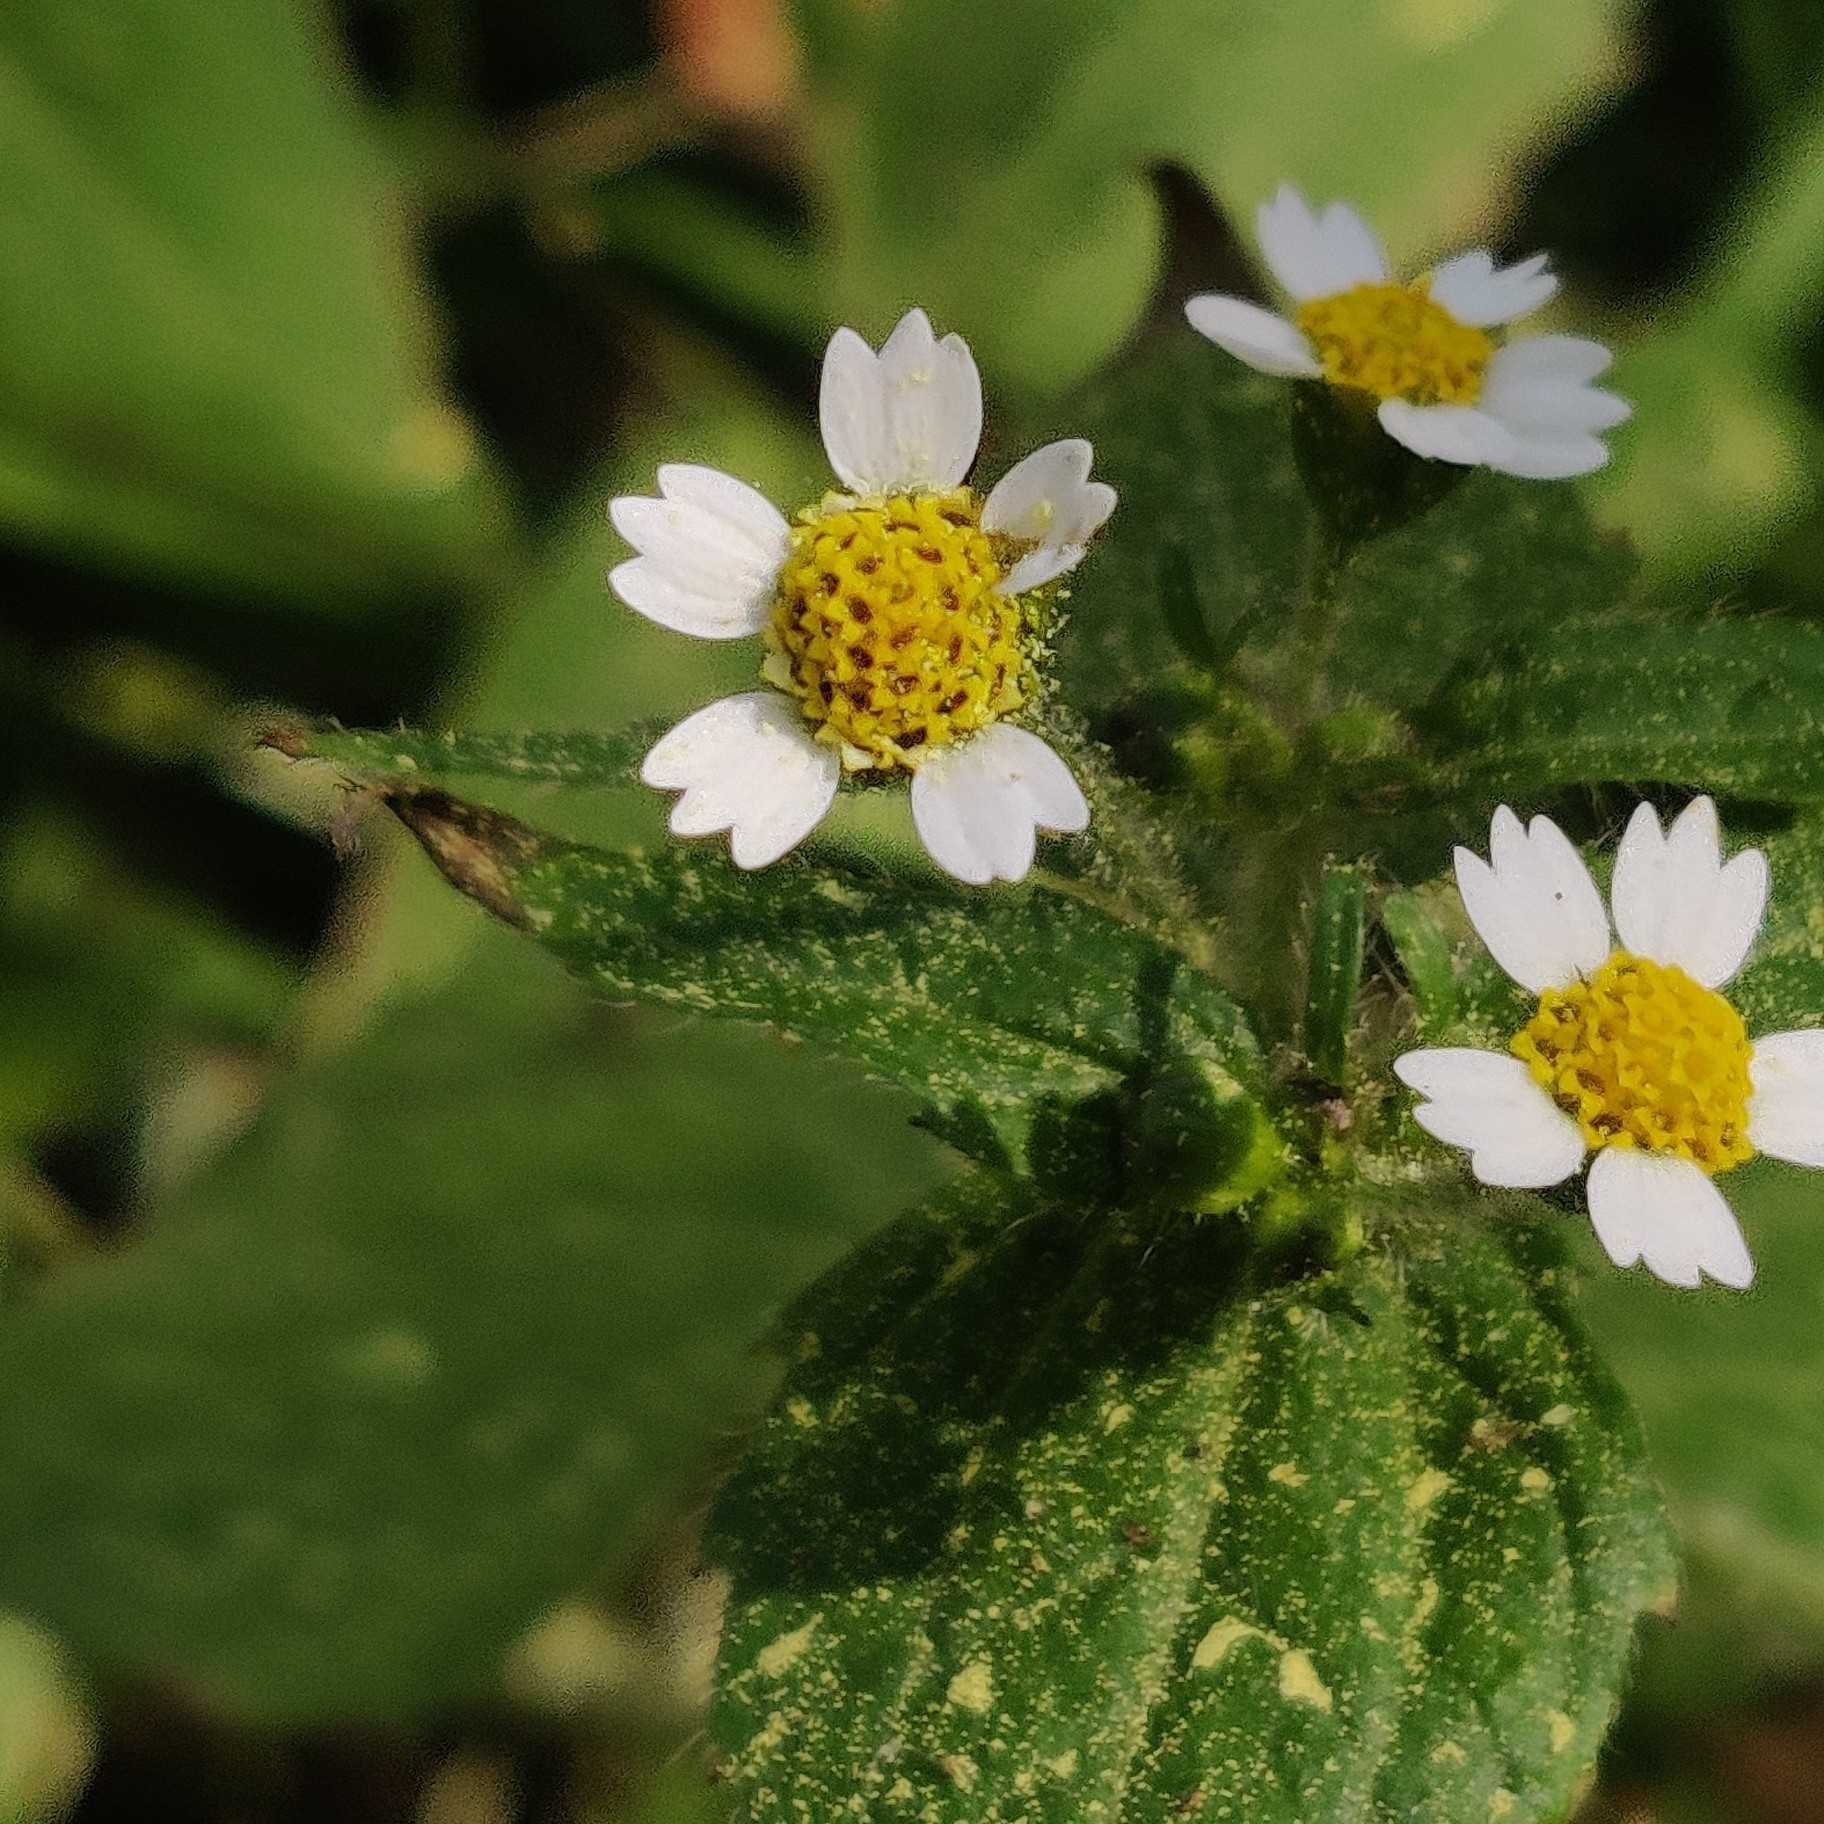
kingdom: Plantae
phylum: Tracheophyta
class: Magnoliopsida
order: Asterales
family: Asteraceae
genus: Galinsoga
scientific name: Galinsoga quadriradiata
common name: Shaggy soldier
